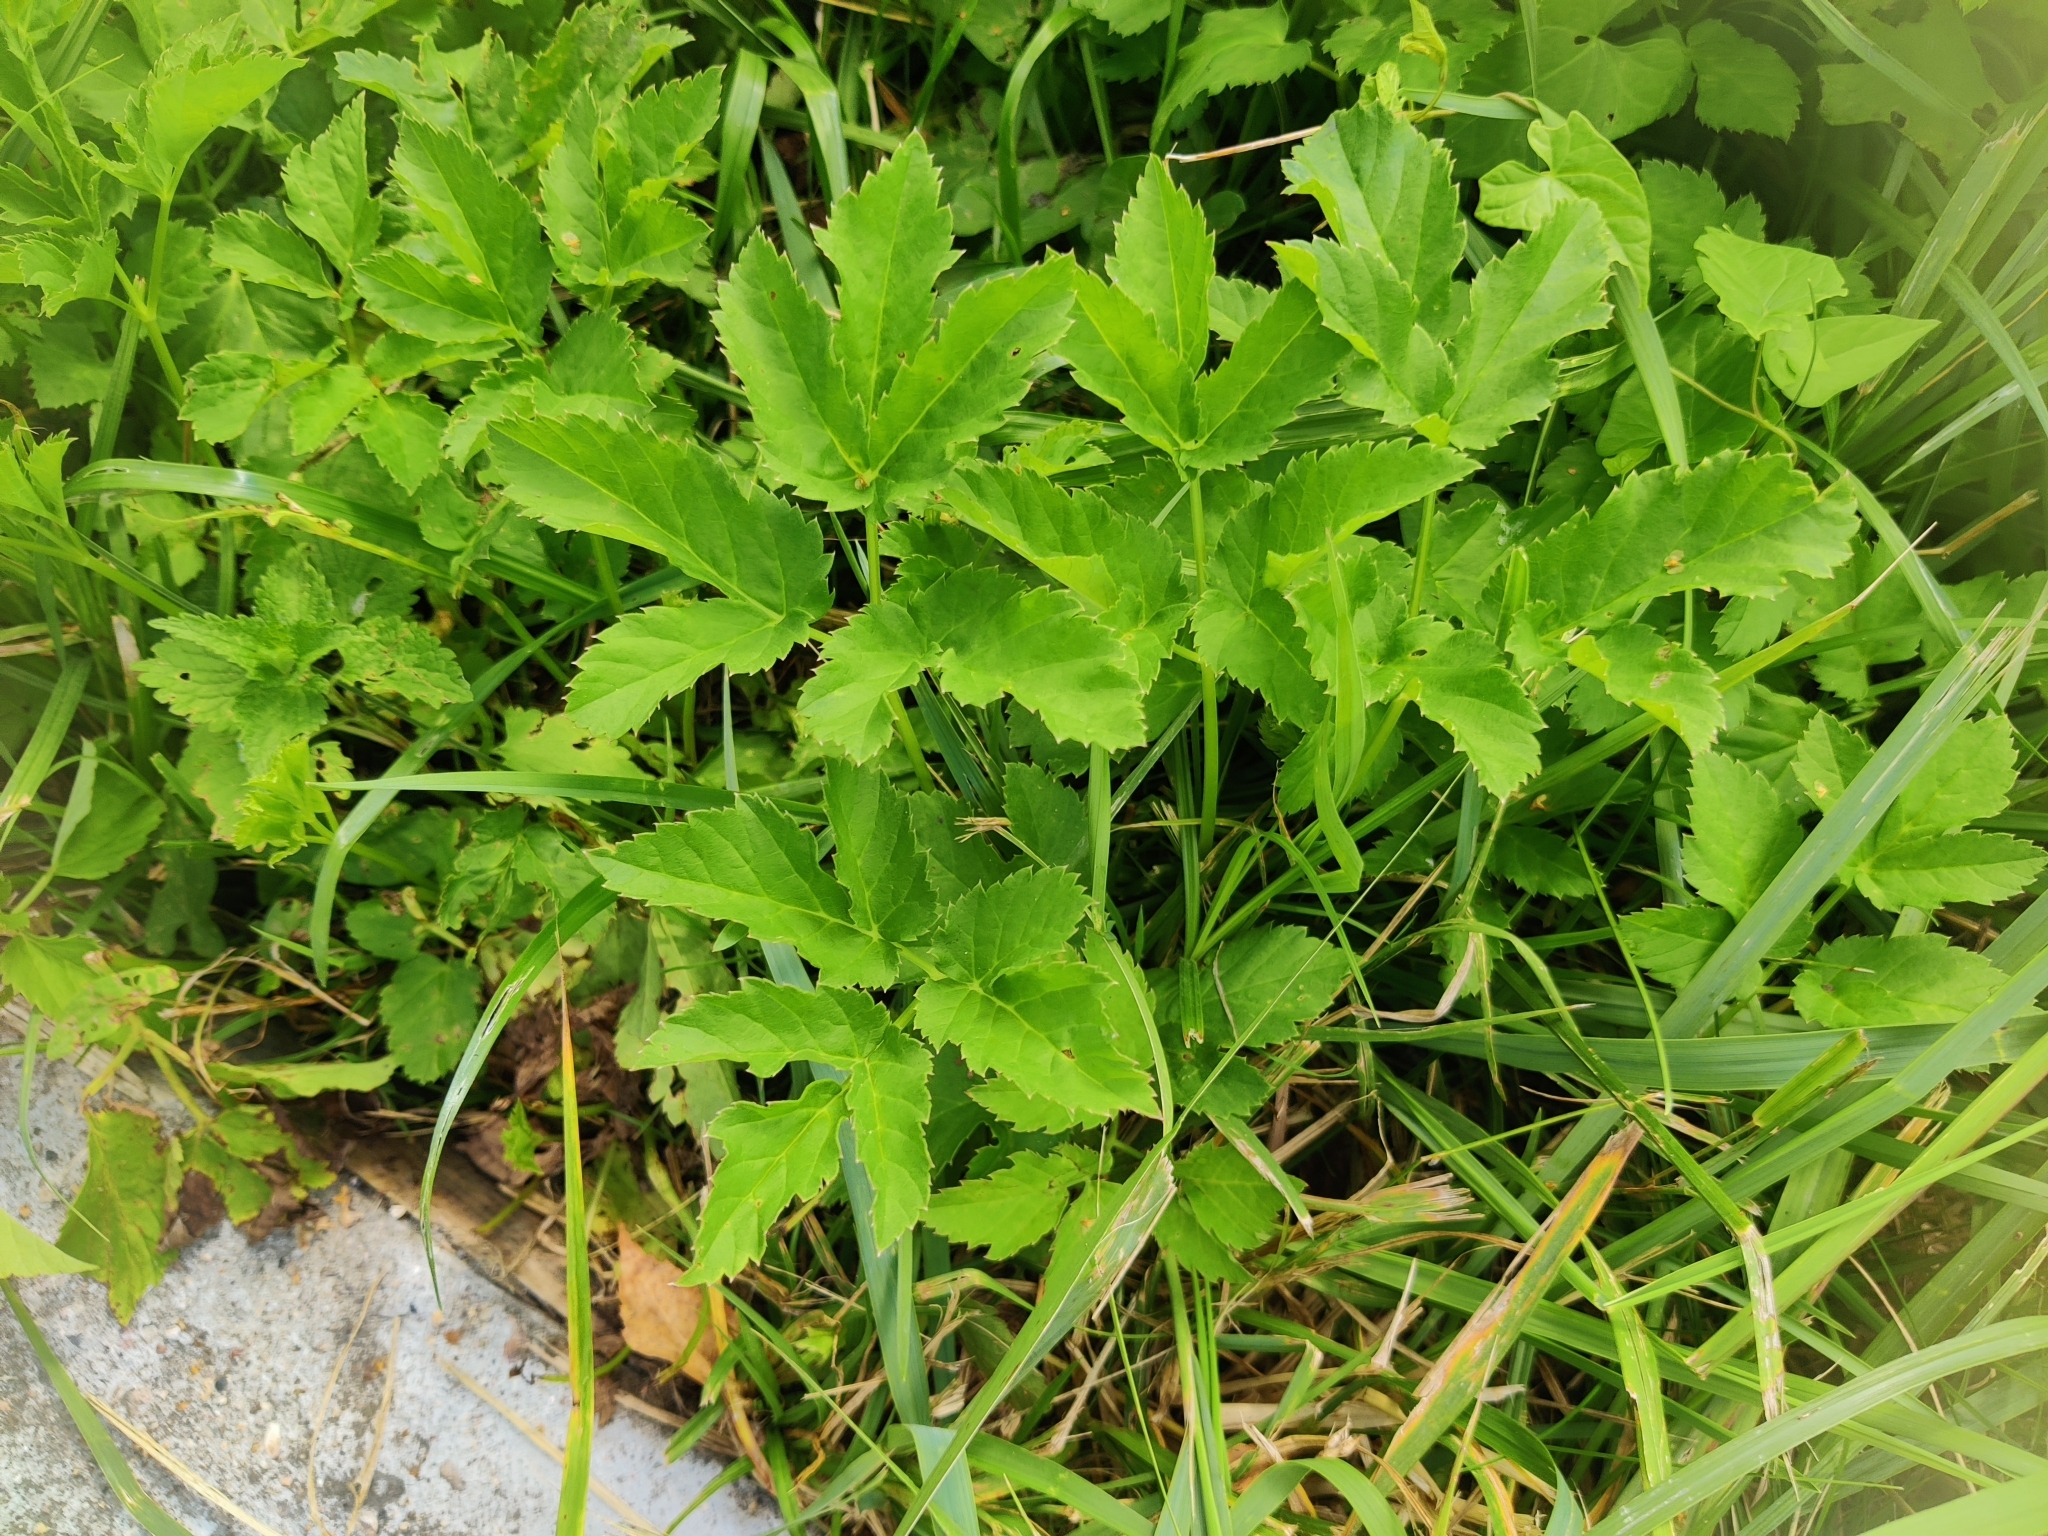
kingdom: Plantae
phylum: Tracheophyta
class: Magnoliopsida
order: Apiales
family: Apiaceae
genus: Aegopodium
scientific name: Aegopodium podagraria
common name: Ground-elder
